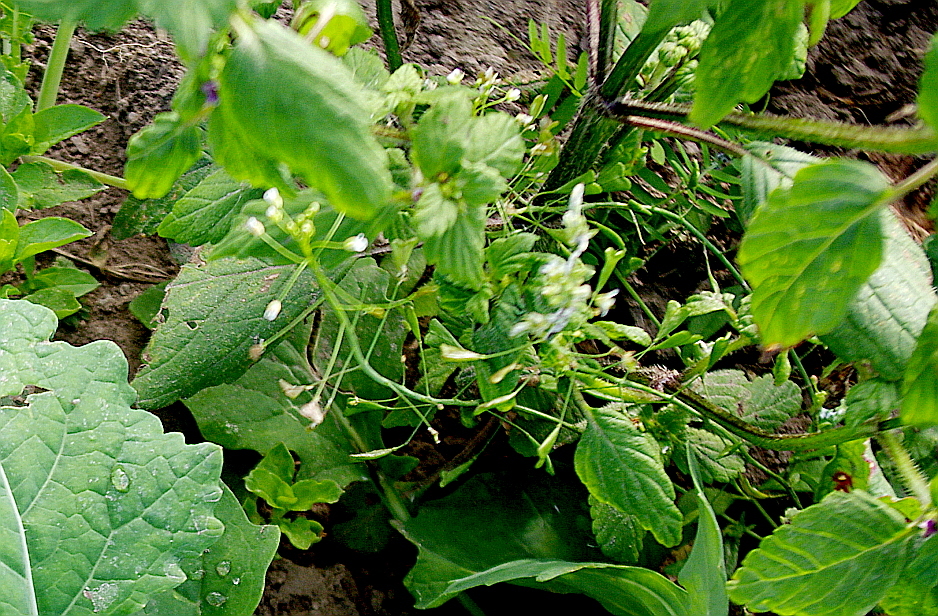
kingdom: Plantae
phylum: Tracheophyta
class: Magnoliopsida
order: Brassicales
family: Brassicaceae
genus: Capsella
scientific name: Capsella bursa-pastoris
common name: Shepherd's purse
